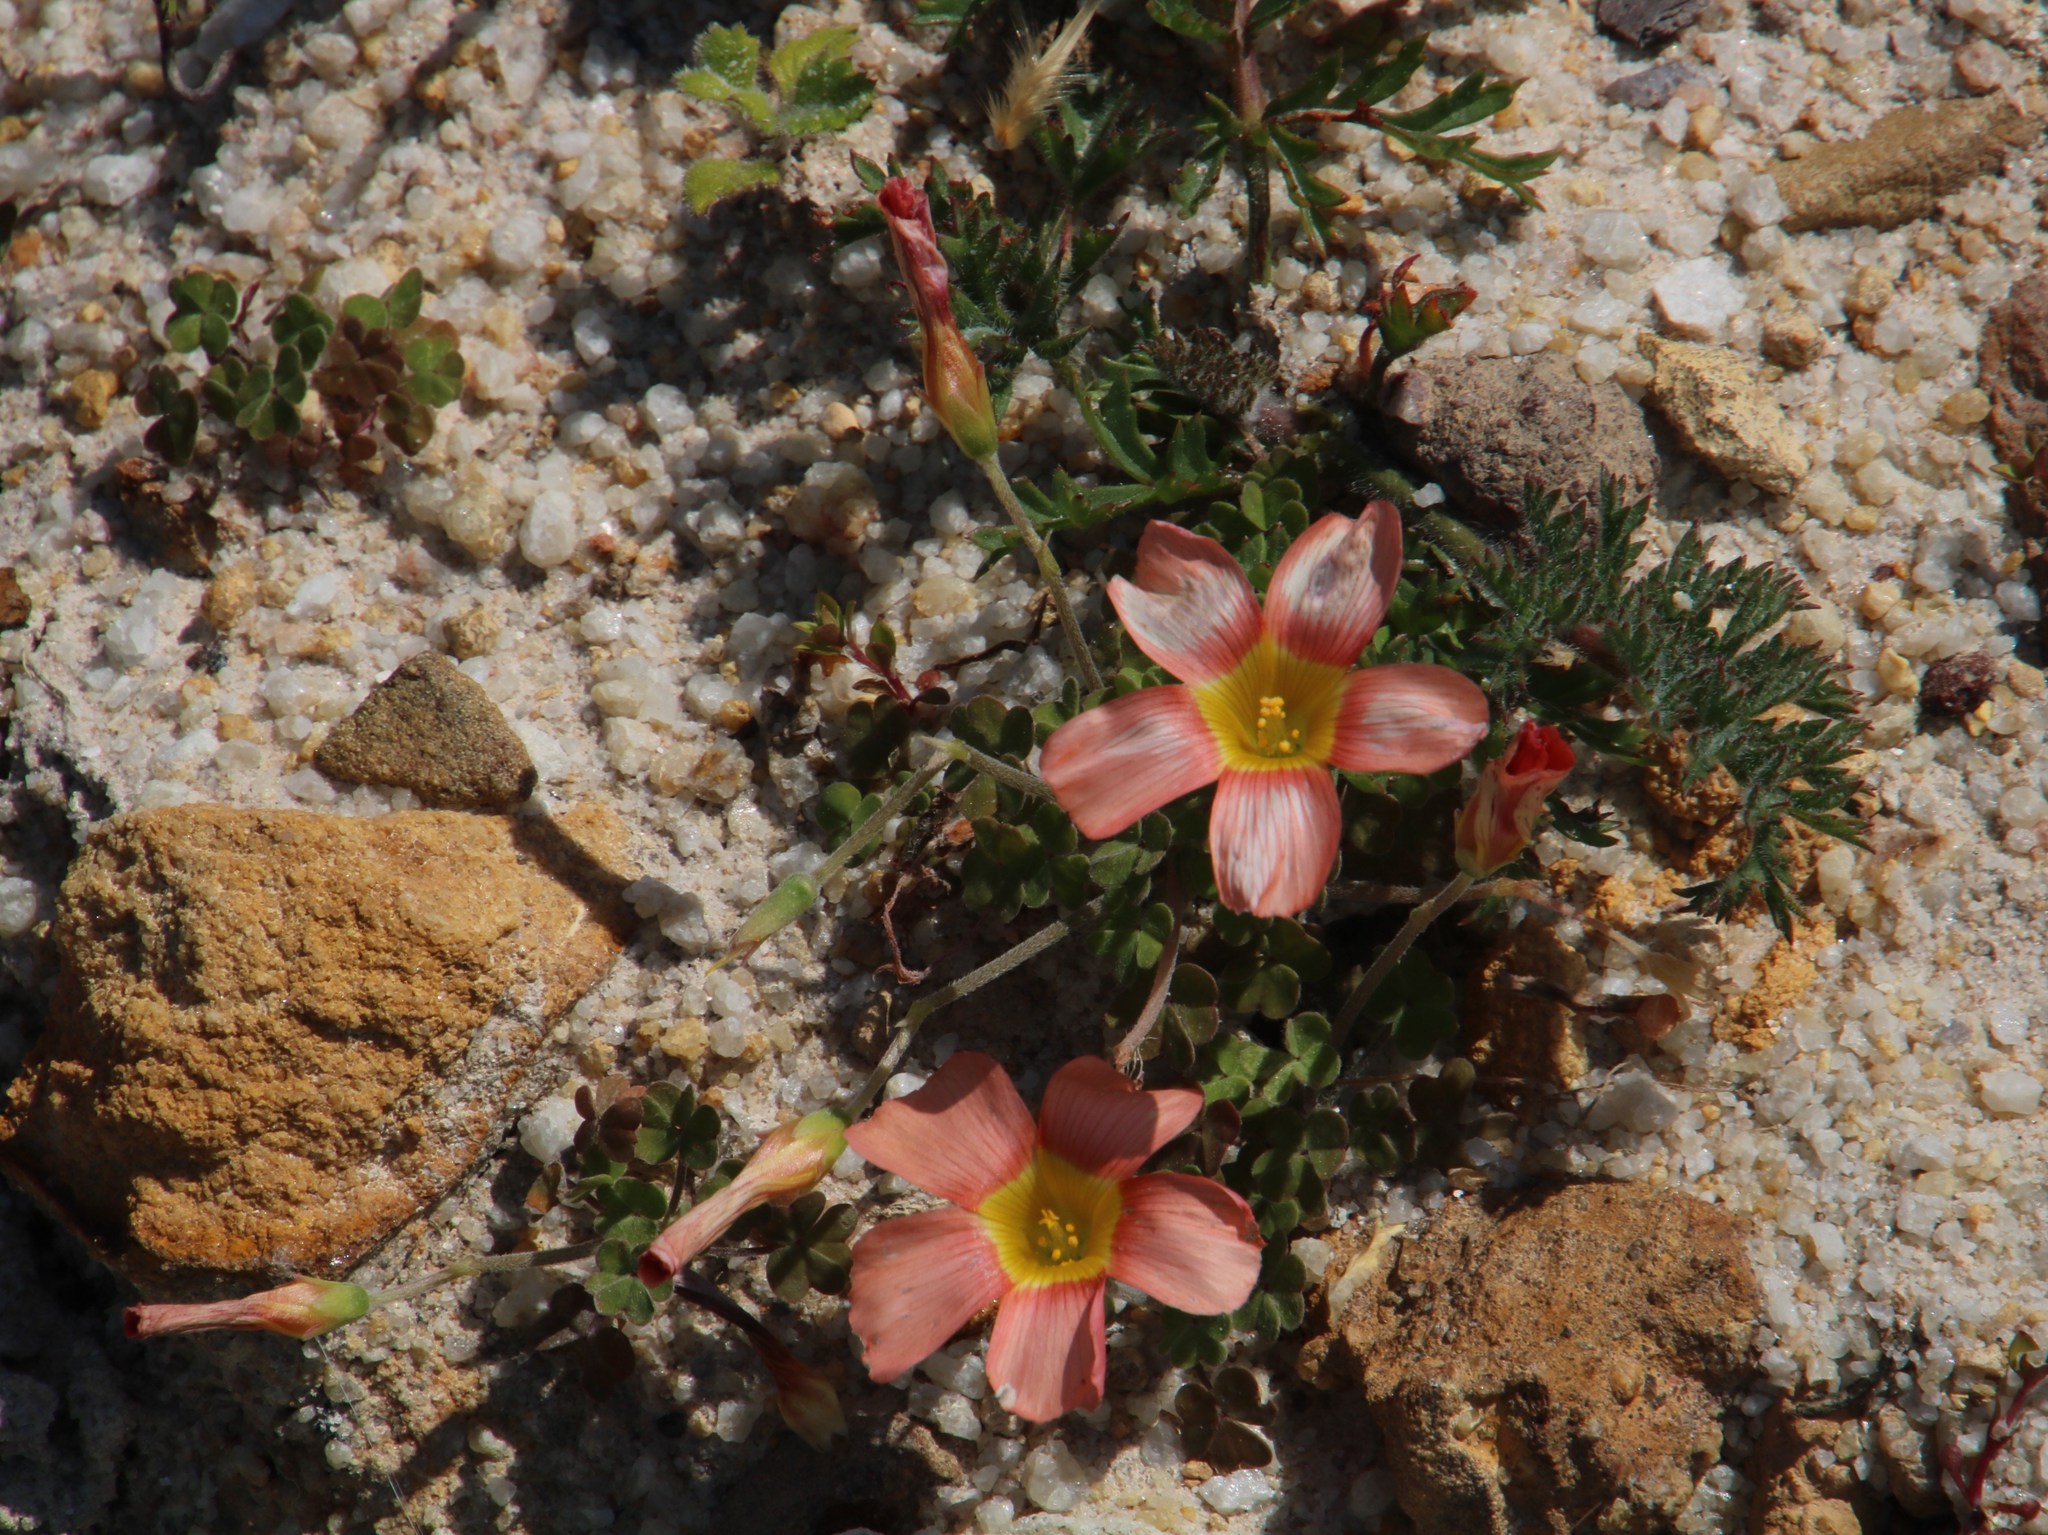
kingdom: Plantae
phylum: Tracheophyta
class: Magnoliopsida
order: Oxalidales
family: Oxalidaceae
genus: Oxalis
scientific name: Oxalis obtusa
